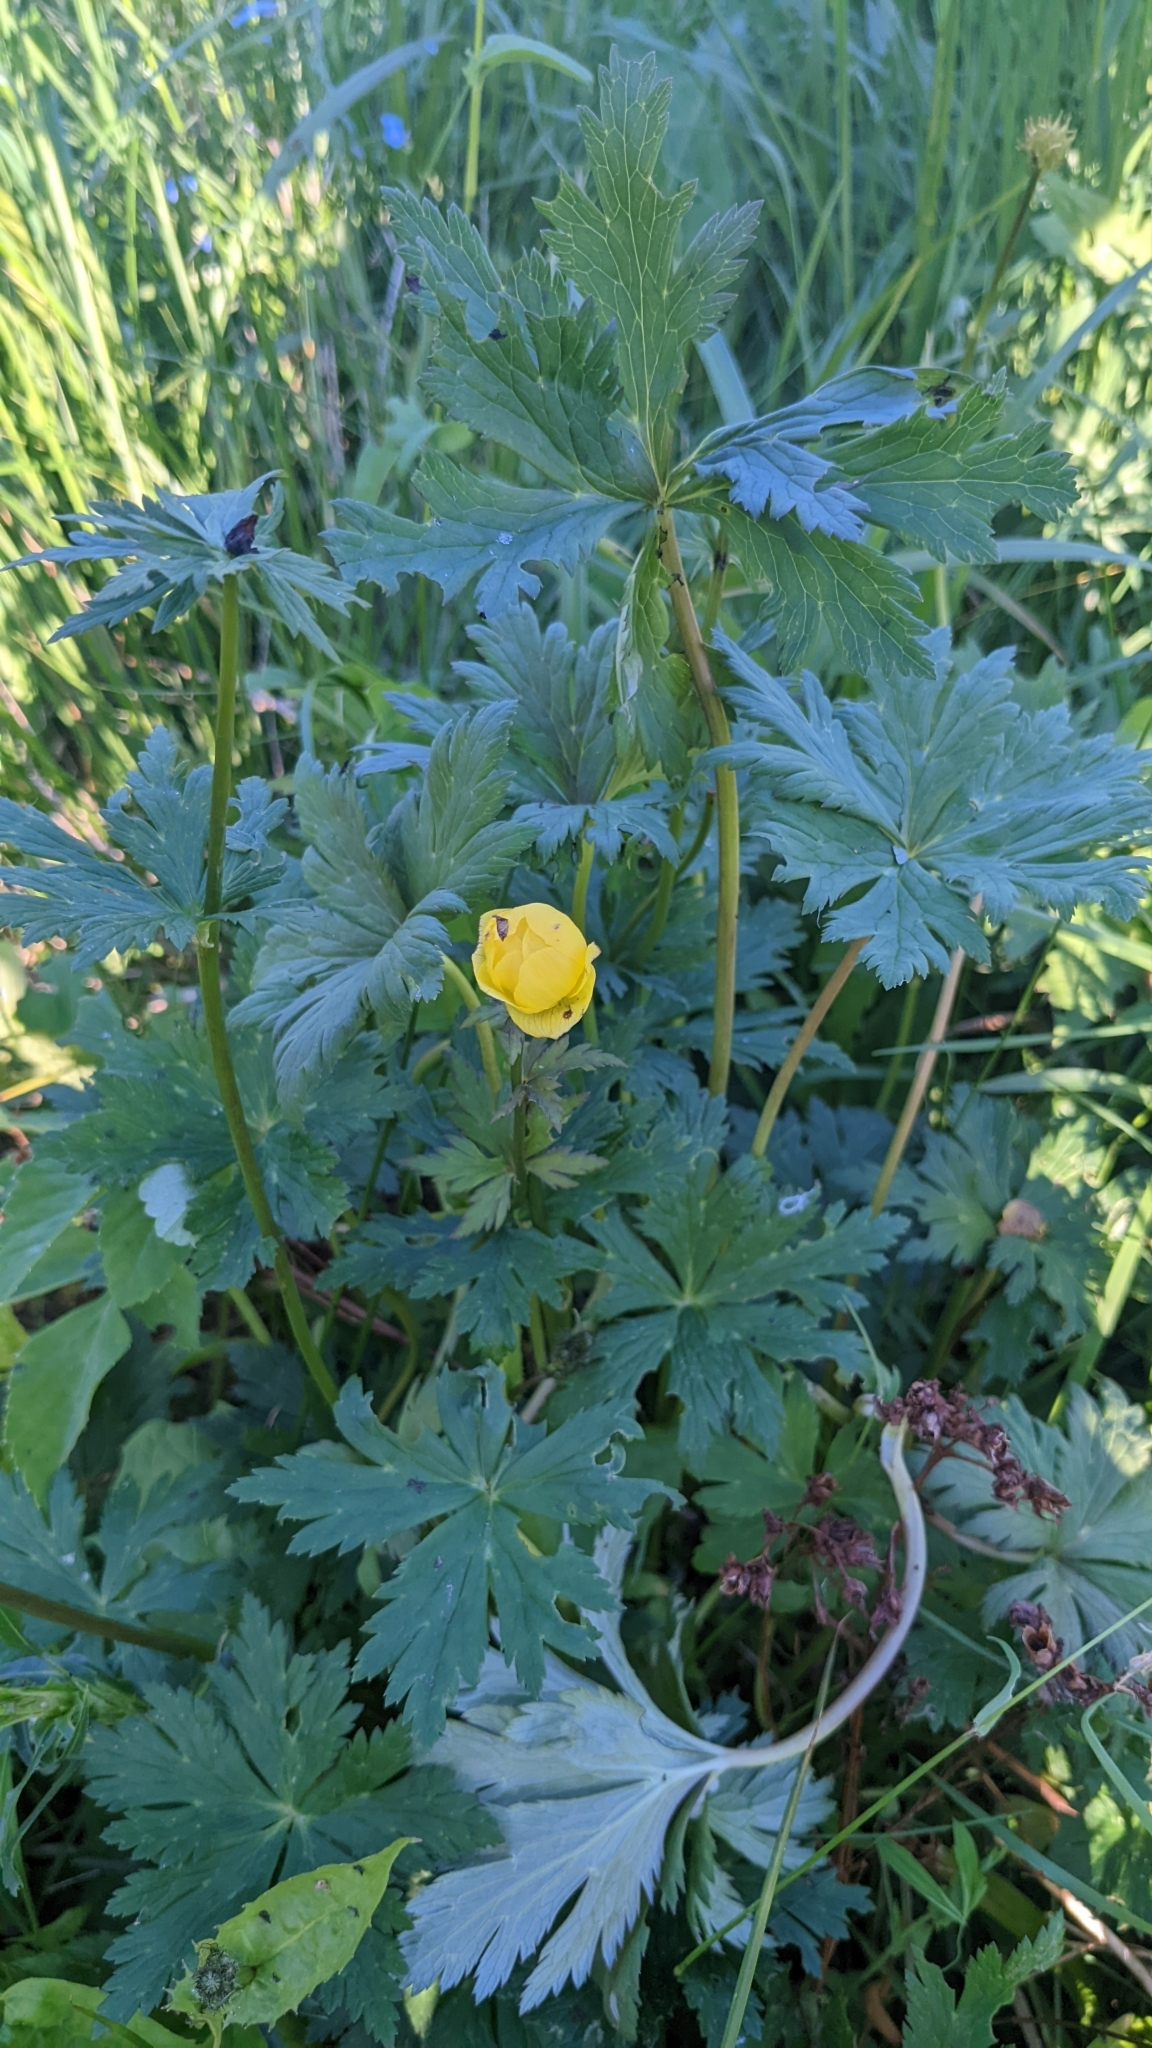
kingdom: Plantae
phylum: Tracheophyta
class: Magnoliopsida
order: Ranunculales
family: Ranunculaceae
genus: Trollius
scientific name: Trollius europaeus
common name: European globeflower
